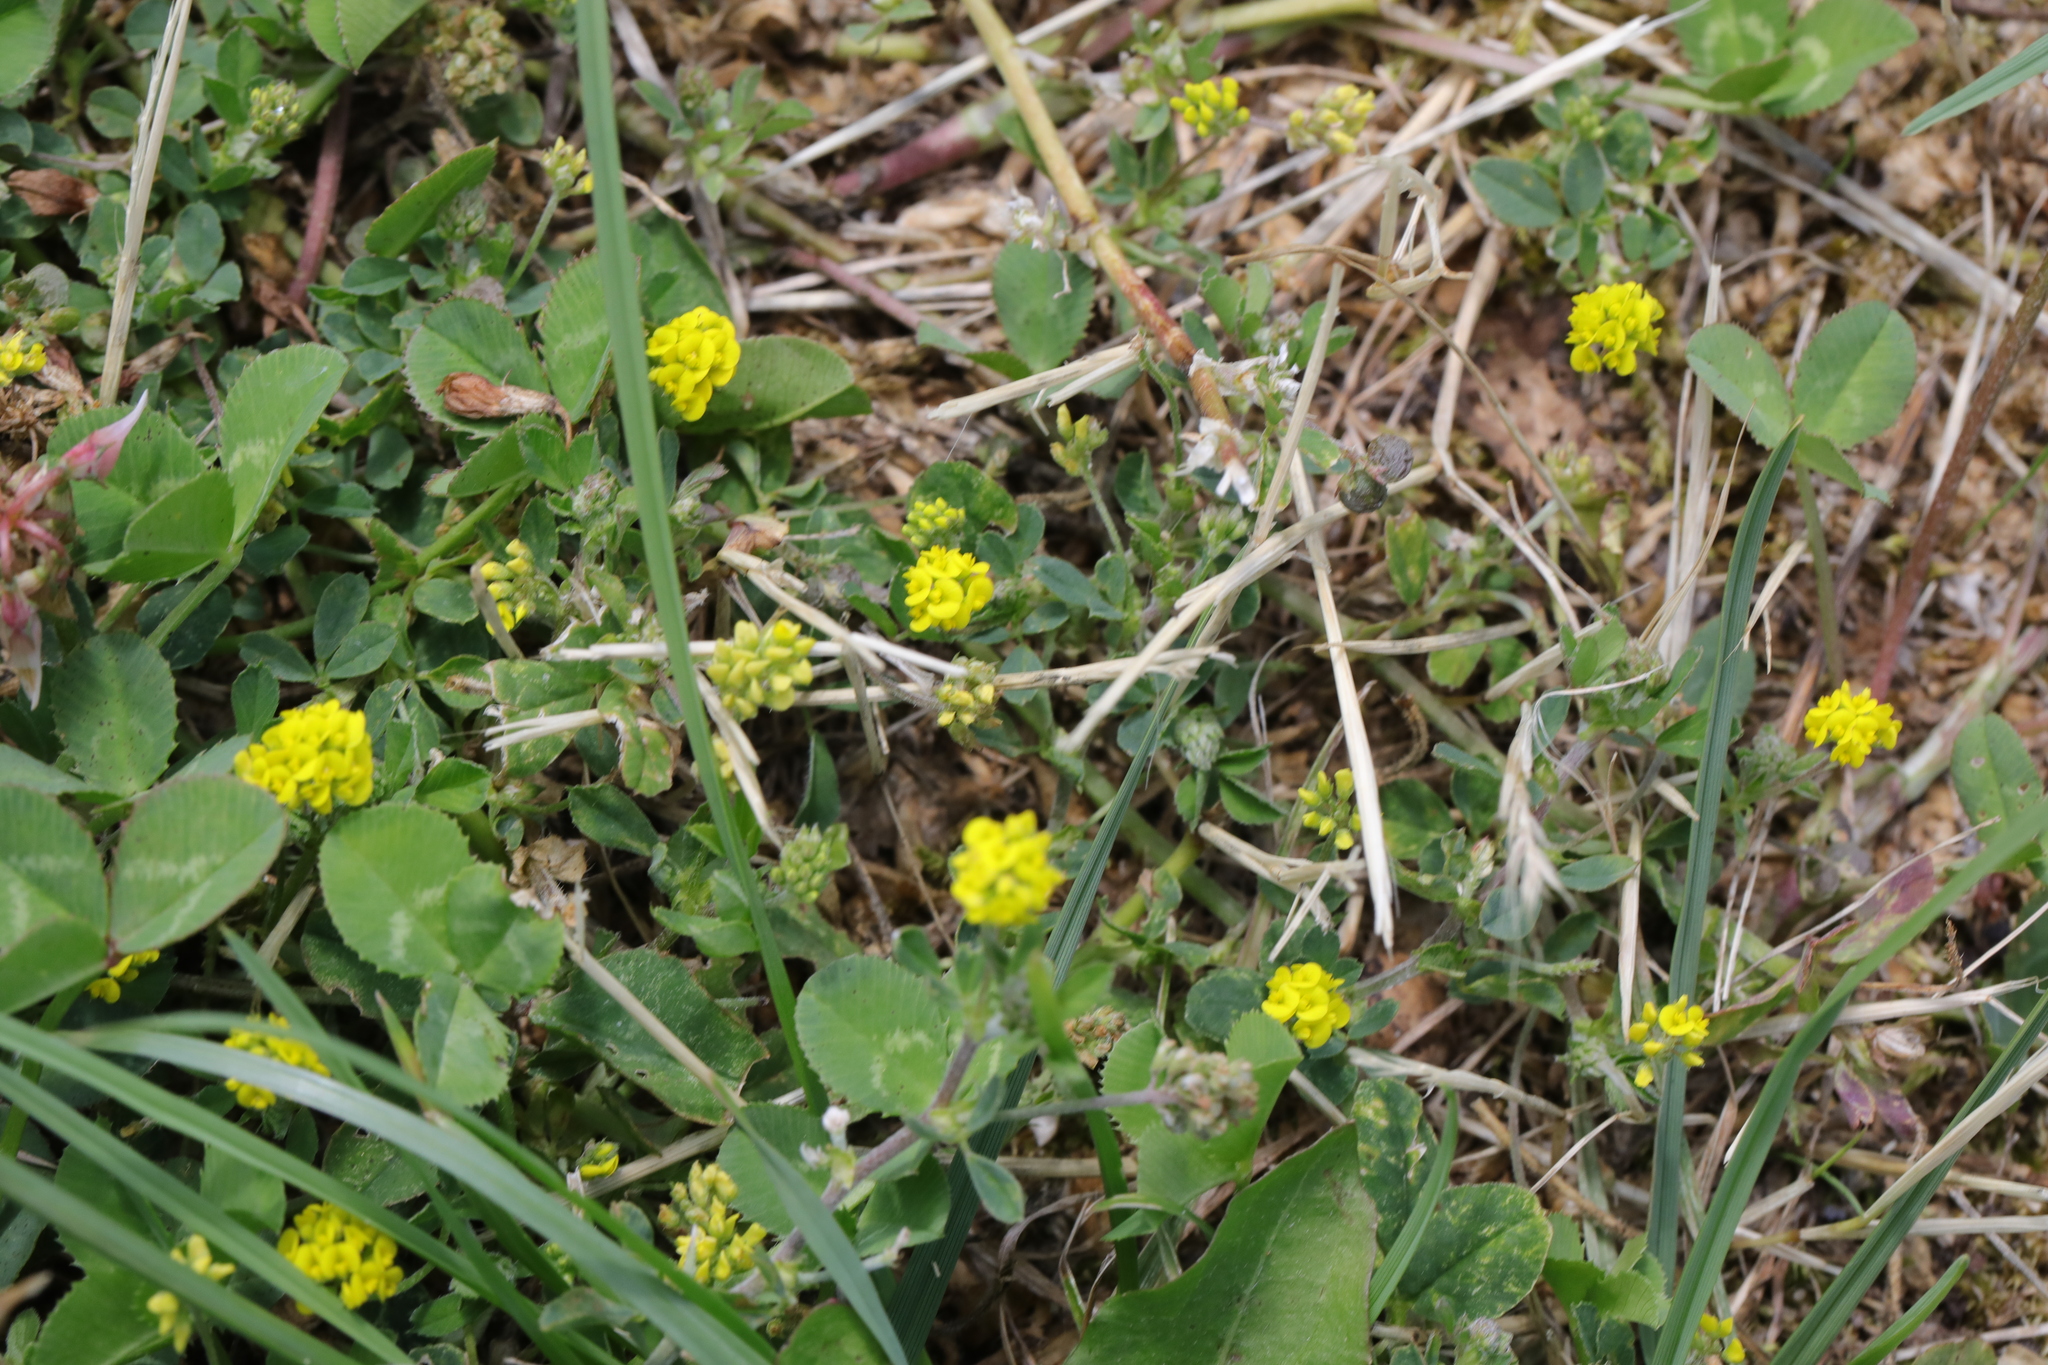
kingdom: Plantae
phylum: Tracheophyta
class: Magnoliopsida
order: Fabales
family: Fabaceae
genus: Medicago
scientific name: Medicago lupulina
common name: Black medick
